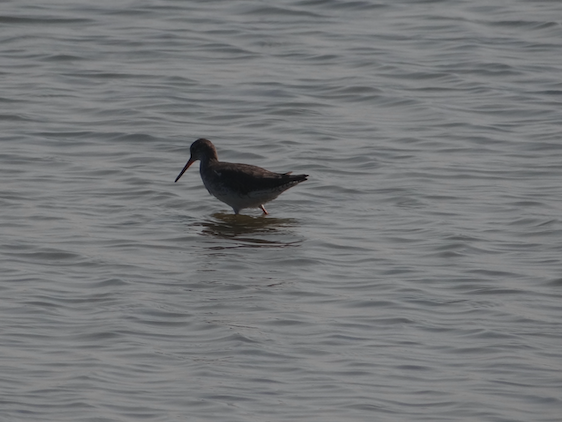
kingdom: Animalia
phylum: Chordata
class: Aves
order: Charadriiformes
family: Scolopacidae
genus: Tringa
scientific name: Tringa totanus
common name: Common redshank
